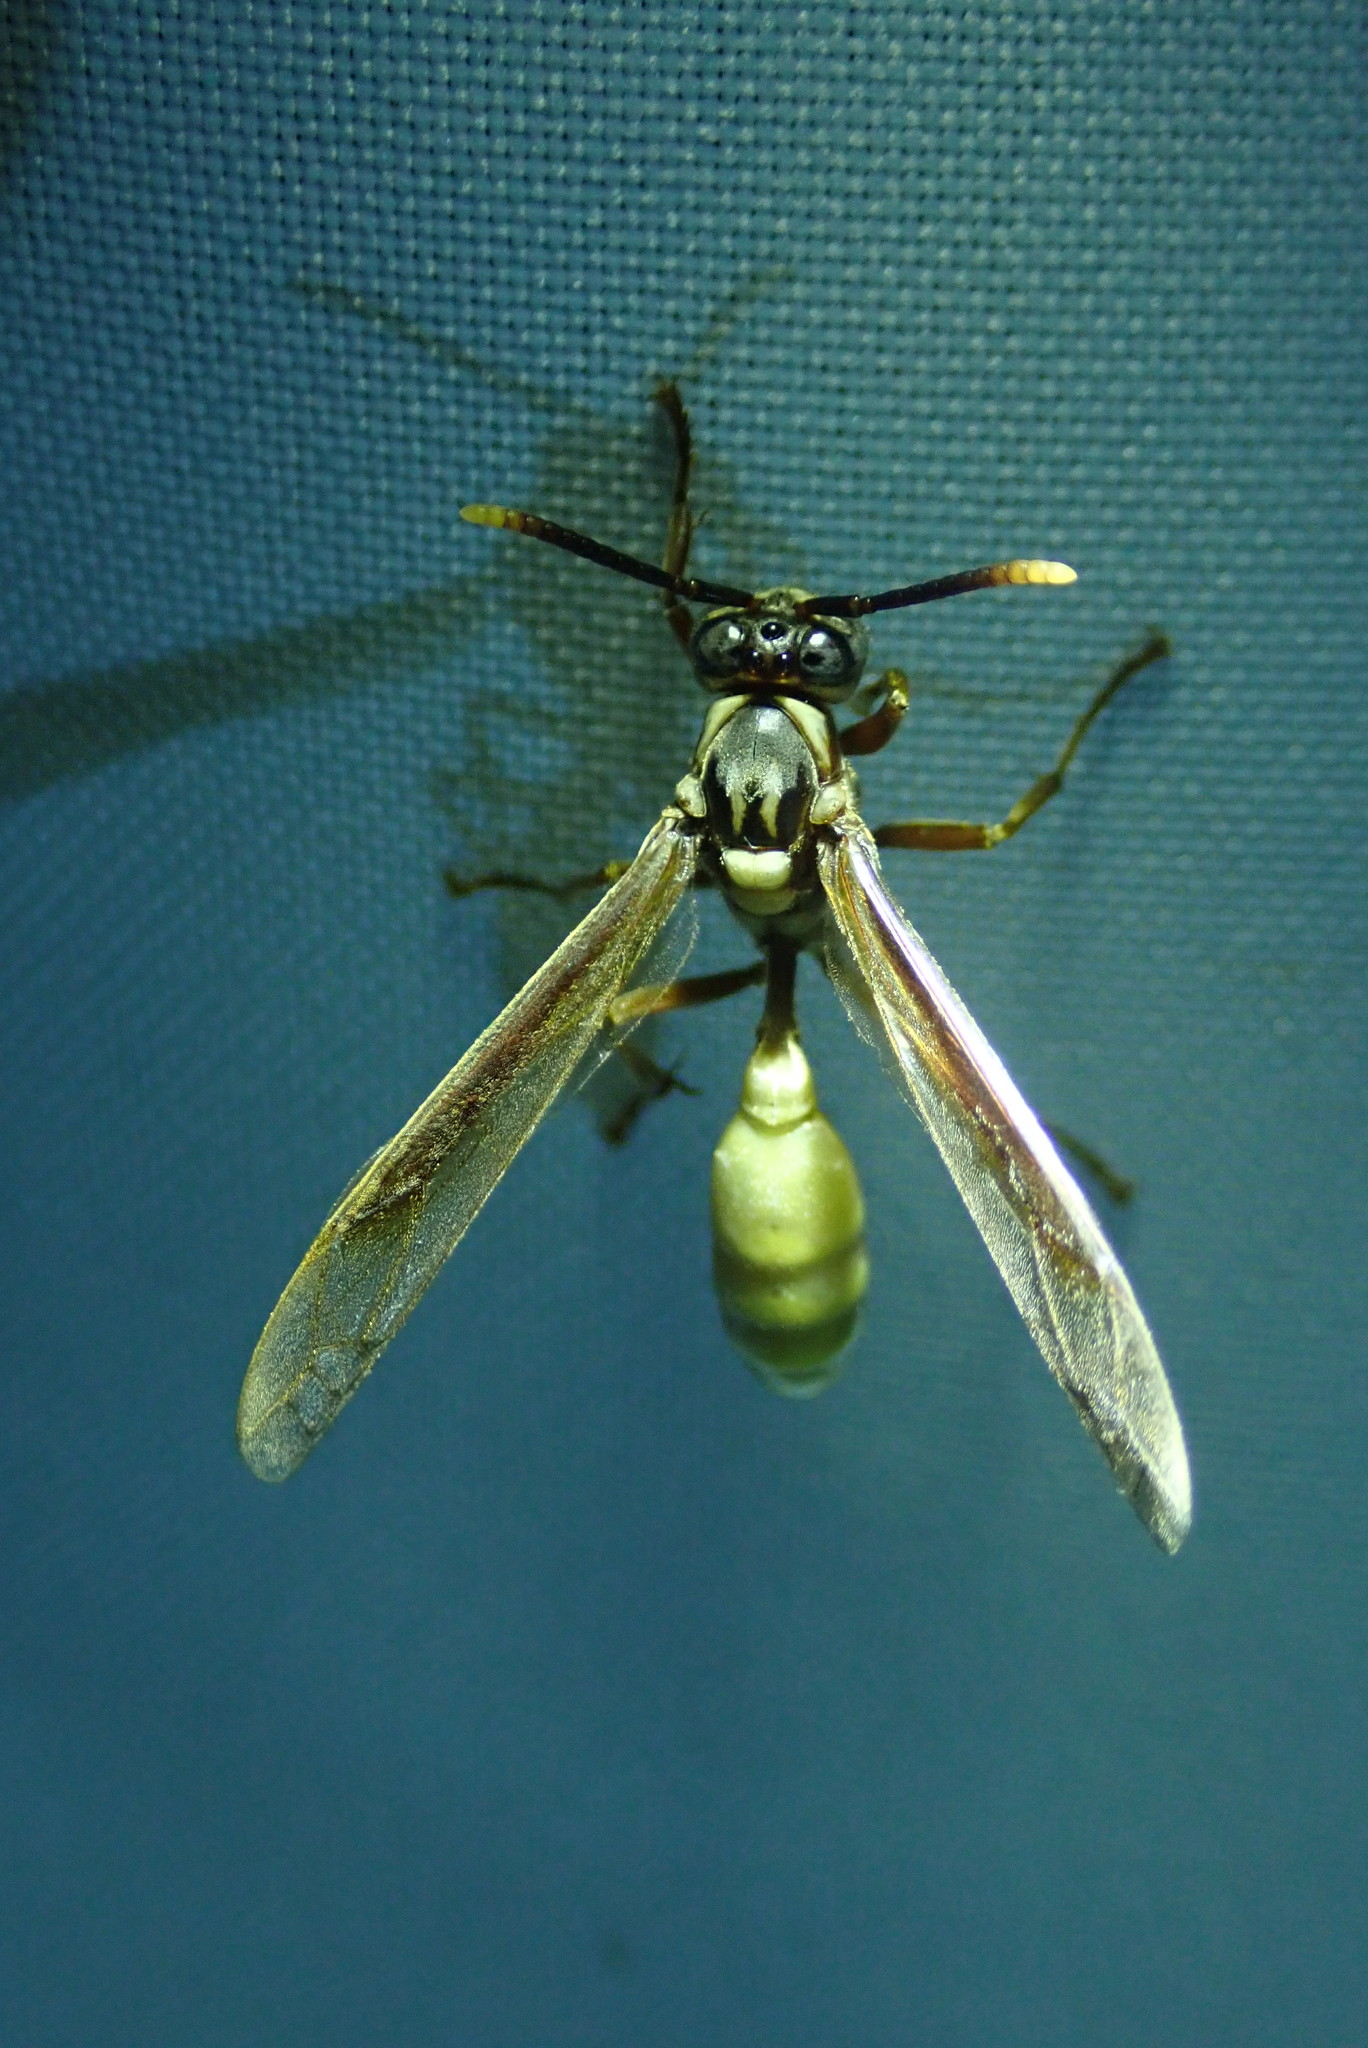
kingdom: Animalia
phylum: Arthropoda
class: Insecta
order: Hymenoptera
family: Vespidae
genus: Apoica
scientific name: Apoica pallens
